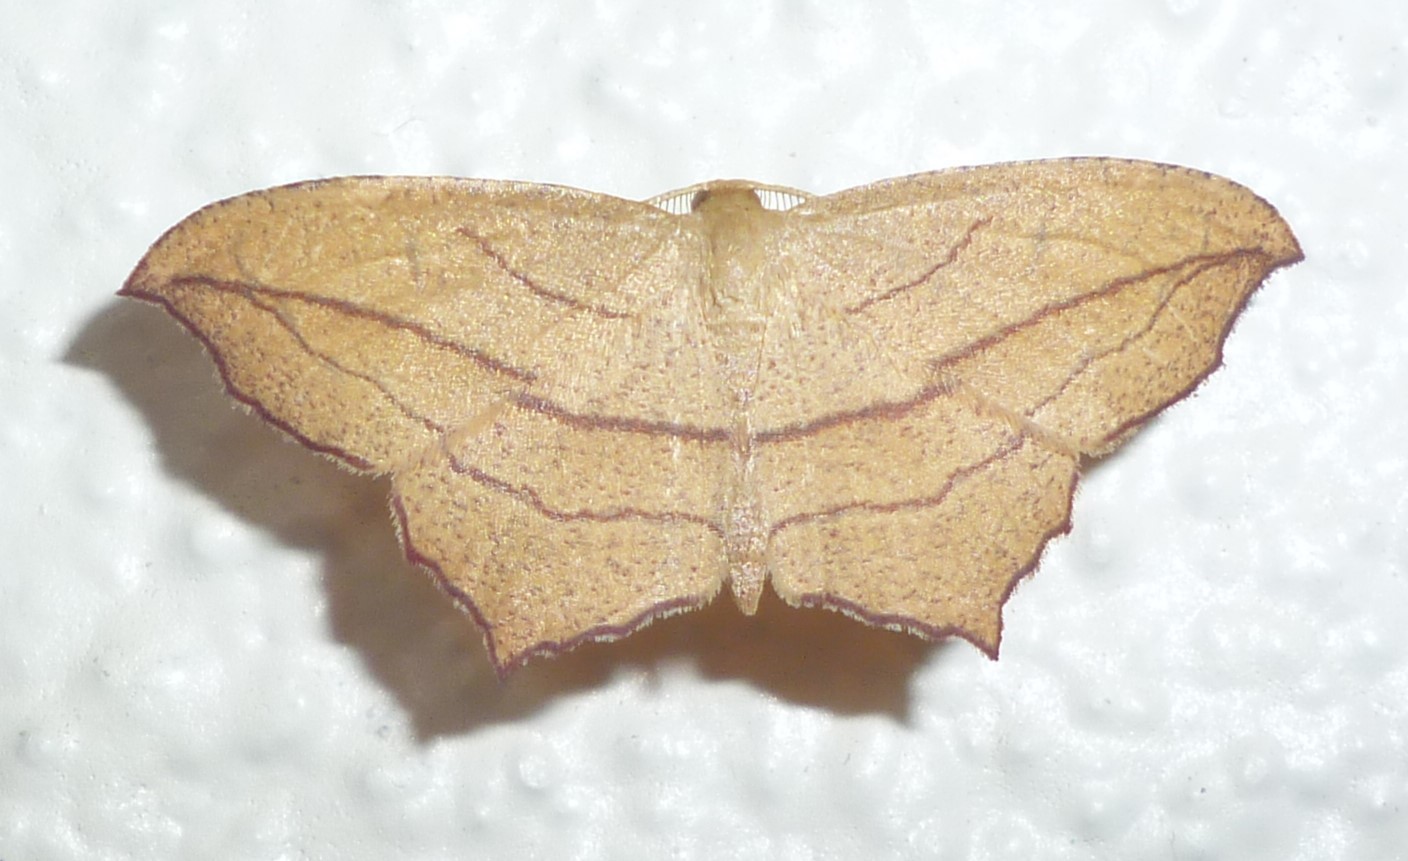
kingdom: Animalia
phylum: Arthropoda
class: Insecta
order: Lepidoptera
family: Geometridae
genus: Timandra
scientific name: Timandra amaturaria
